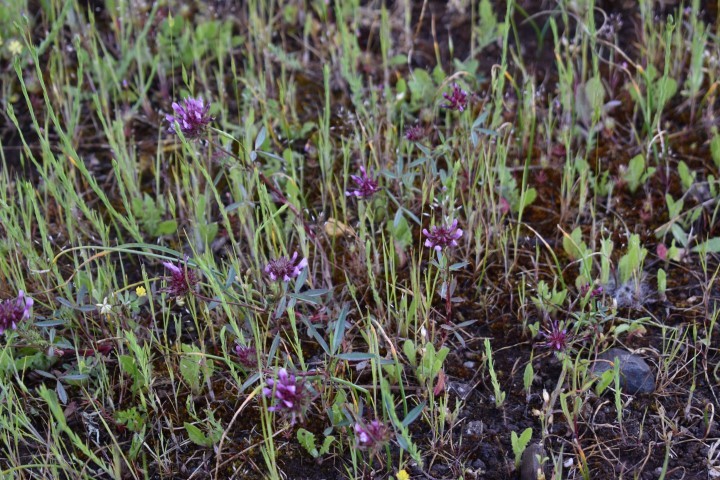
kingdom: Plantae
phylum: Tracheophyta
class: Magnoliopsida
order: Fabales
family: Fabaceae
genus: Trifolium
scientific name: Trifolium willdenovii
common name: Tomcat clover
